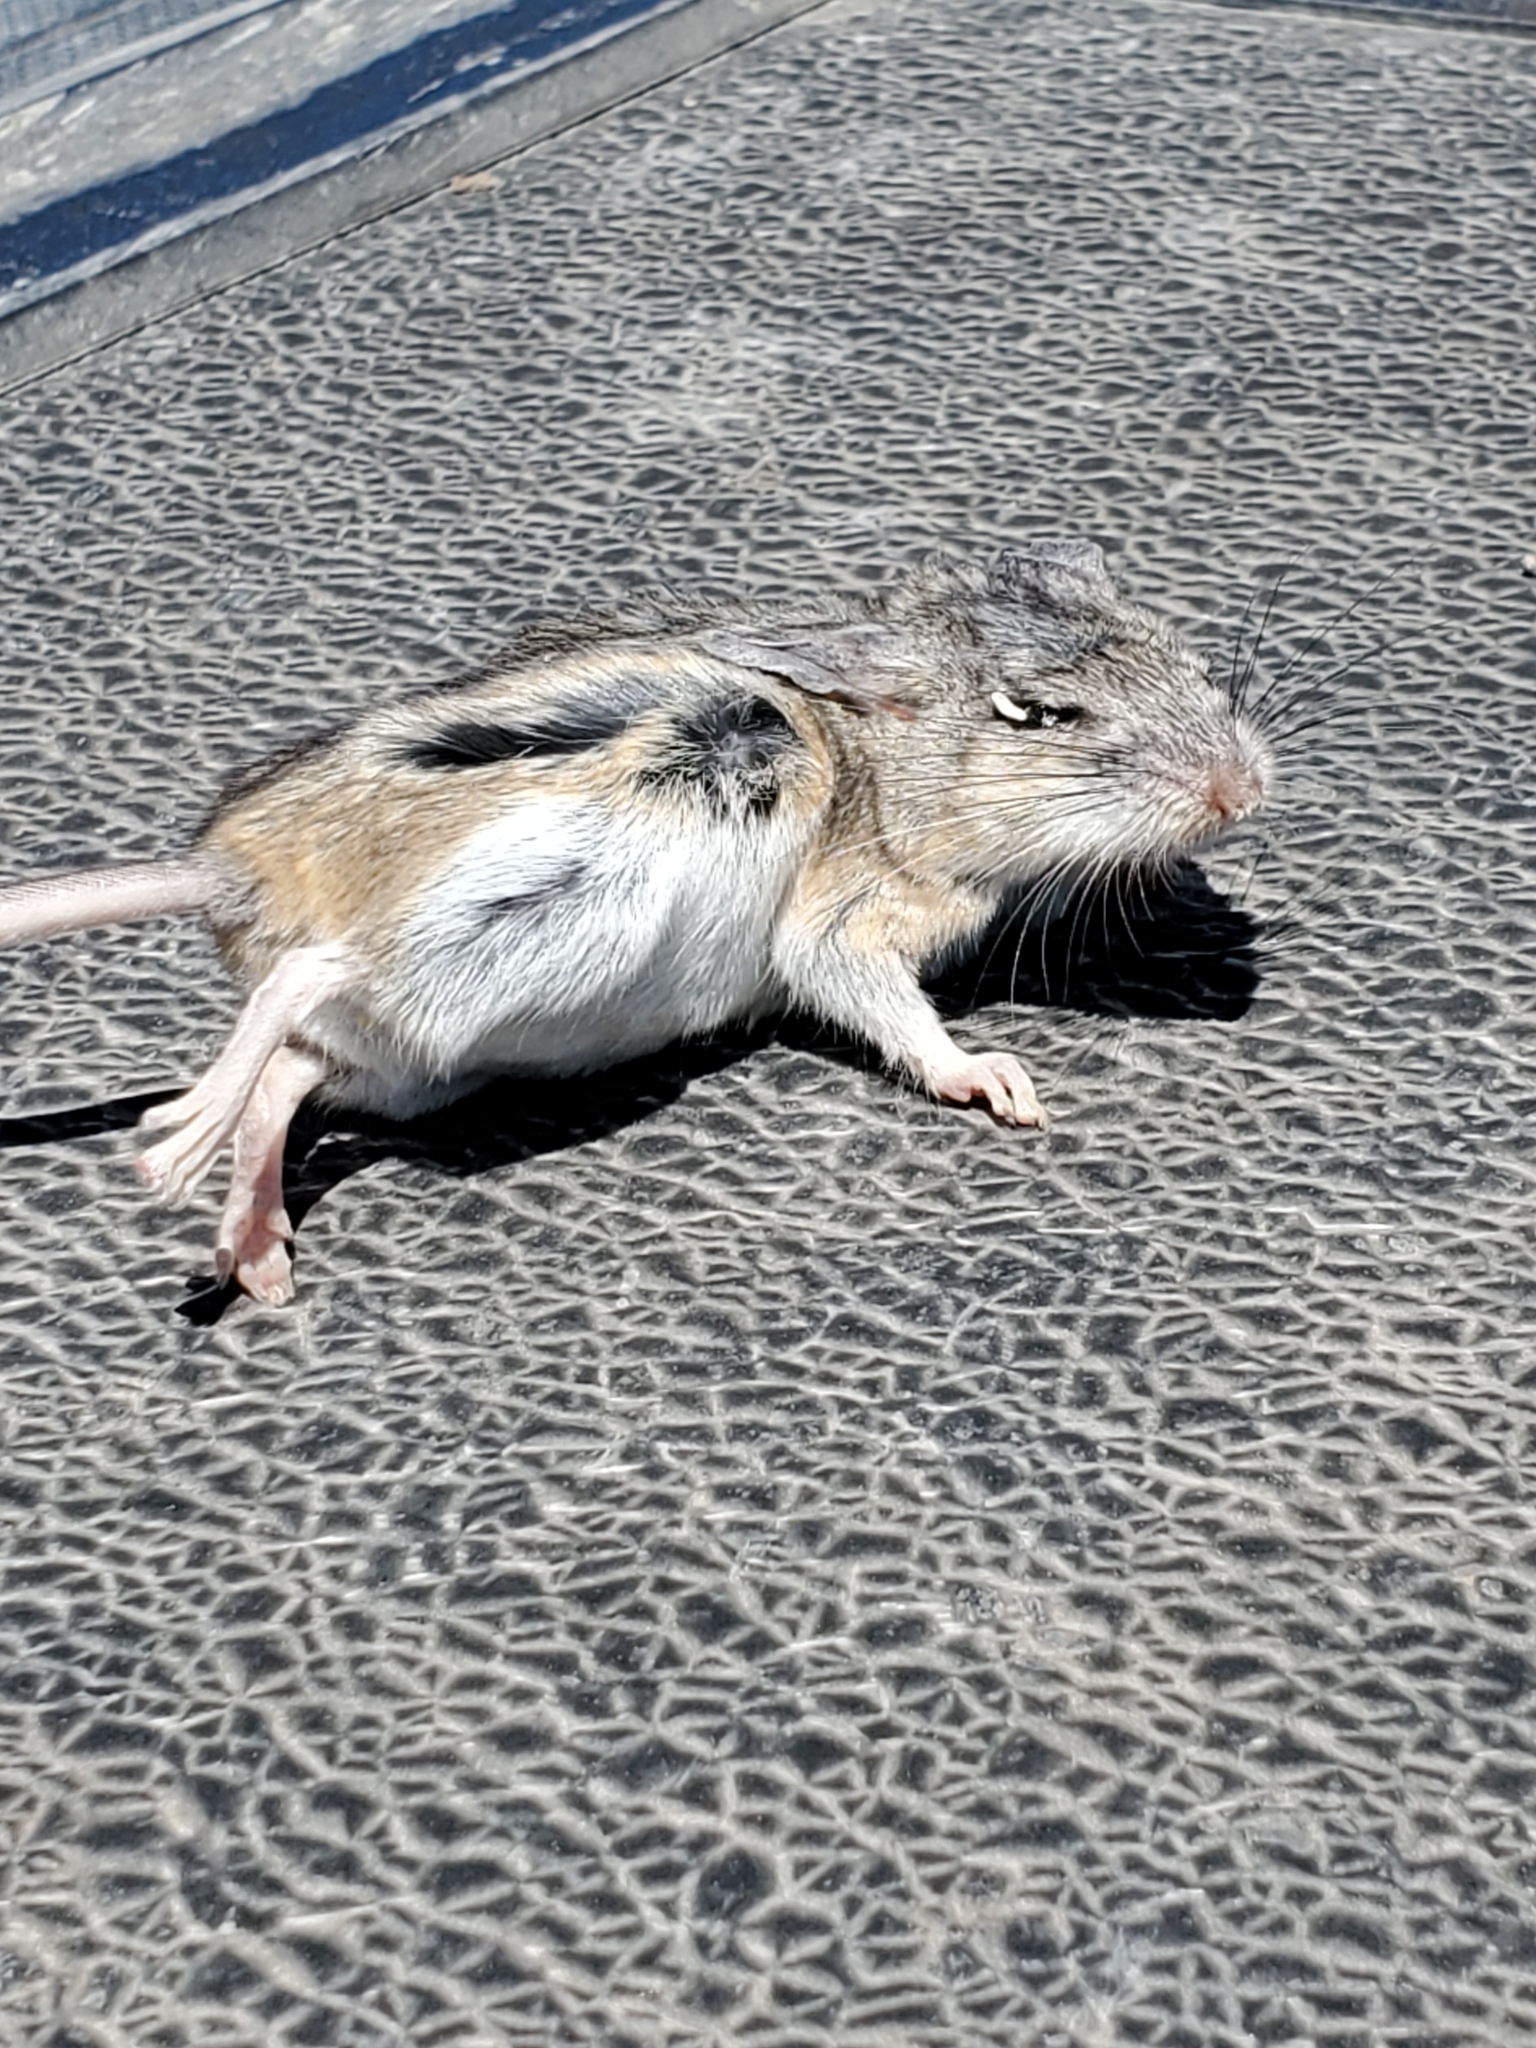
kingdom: Animalia
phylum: Chordata
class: Mammalia
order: Rodentia
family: Cricetidae
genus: Peromyscus
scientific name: Peromyscus leucopus
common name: White-footed deermouse
